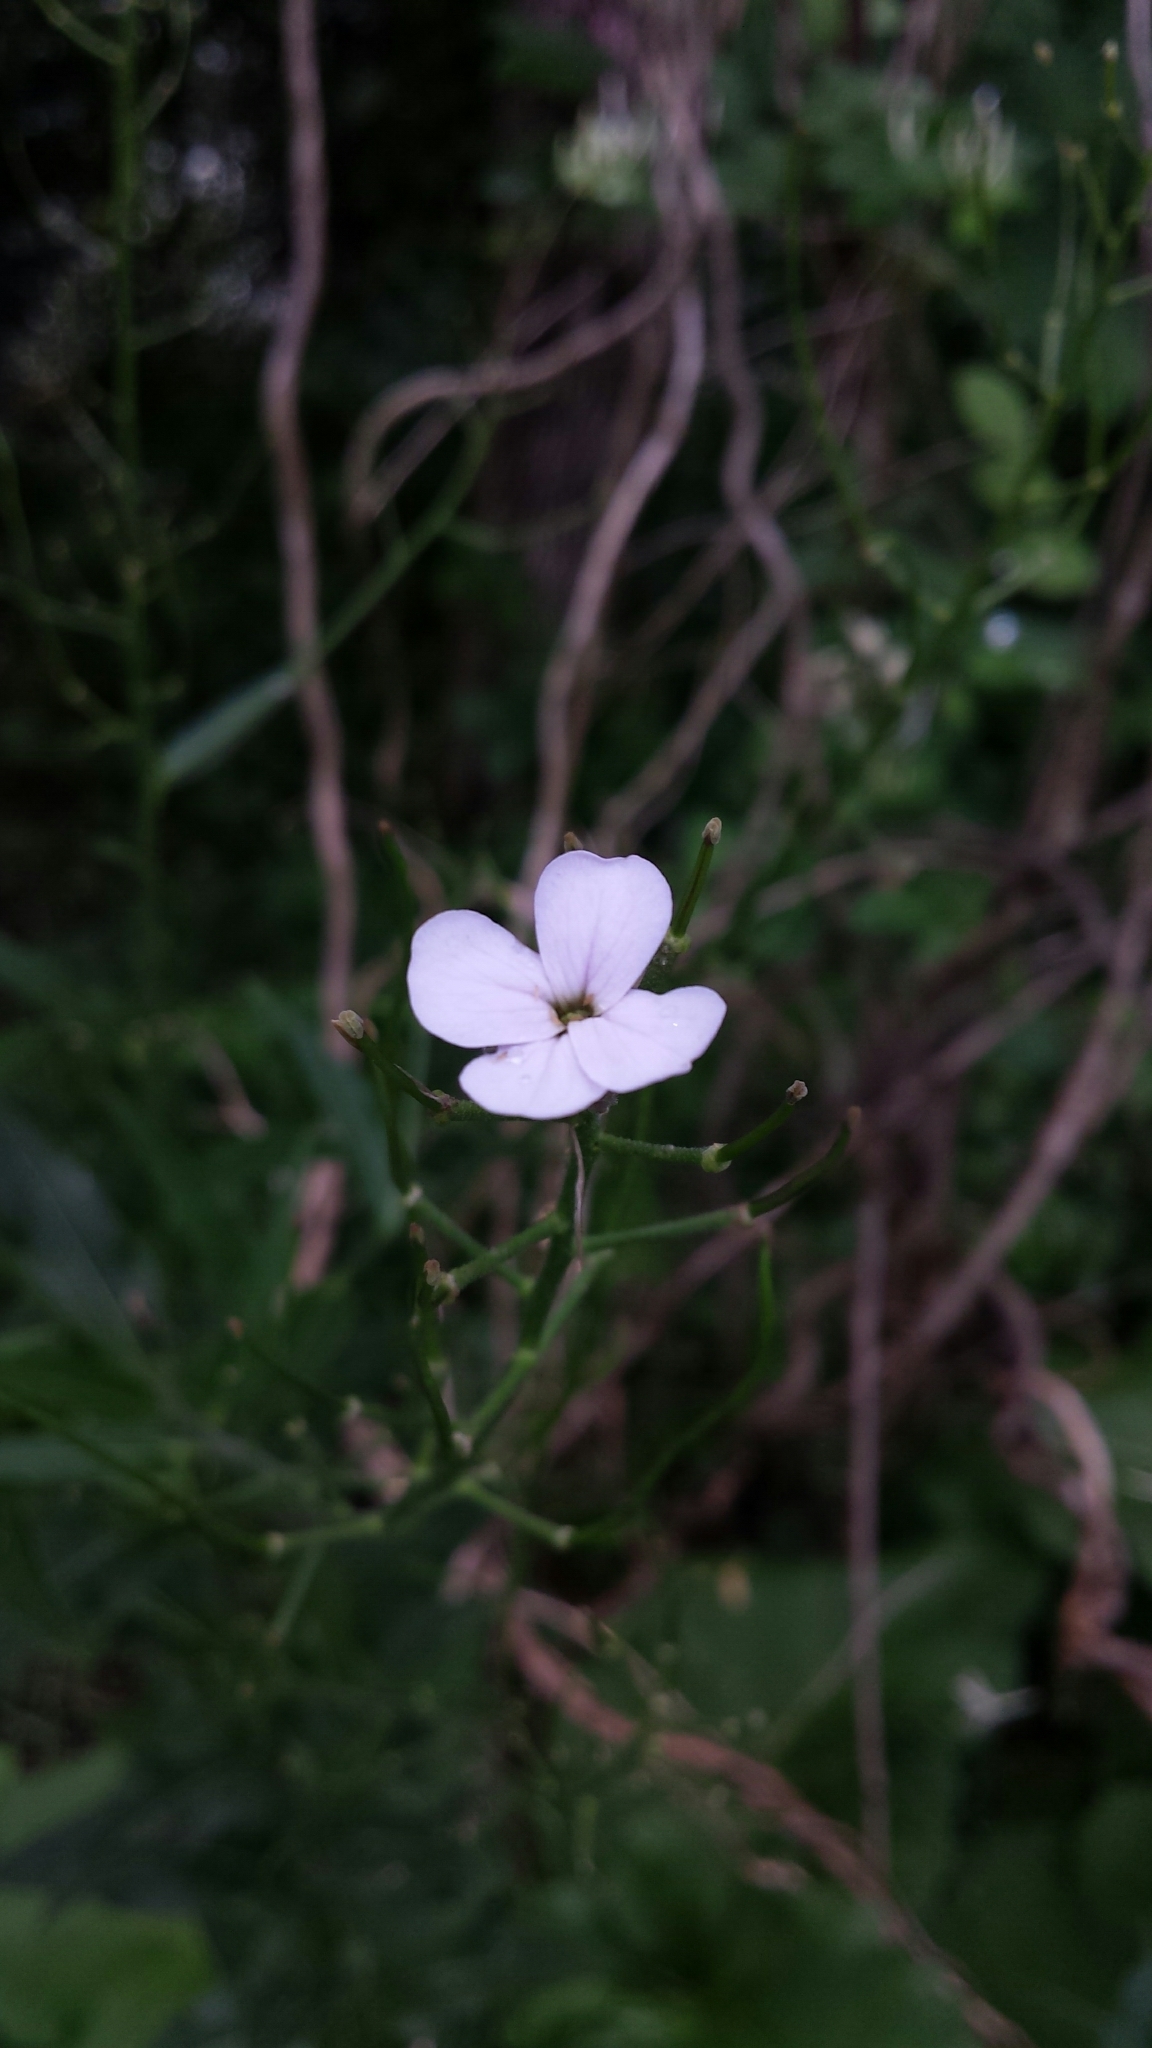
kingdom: Plantae
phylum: Tracheophyta
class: Magnoliopsida
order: Brassicales
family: Brassicaceae
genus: Hesperis
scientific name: Hesperis matronalis
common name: Dame's-violet
